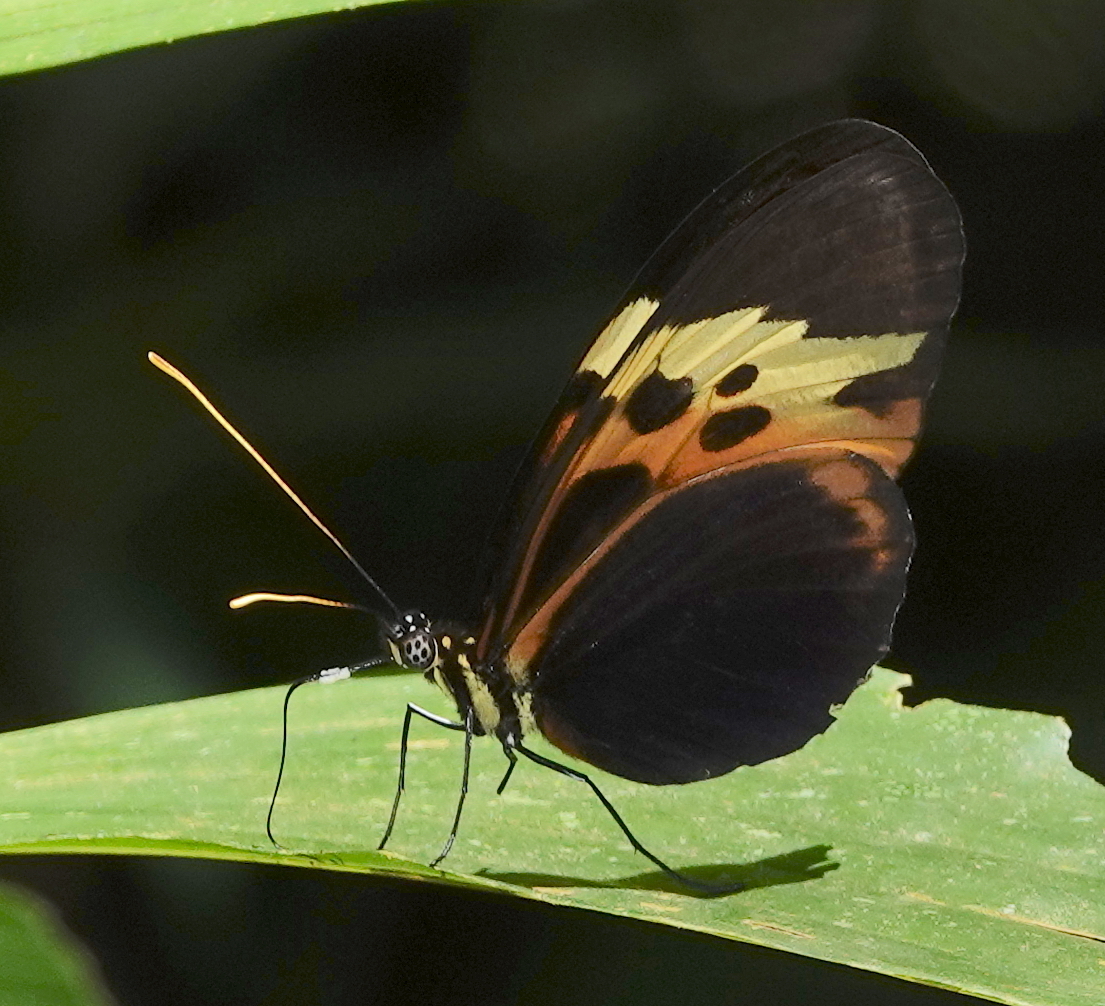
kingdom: Animalia
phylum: Arthropoda
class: Insecta
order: Lepidoptera
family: Nymphalidae
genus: Heliconius
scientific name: Heliconius numatus
